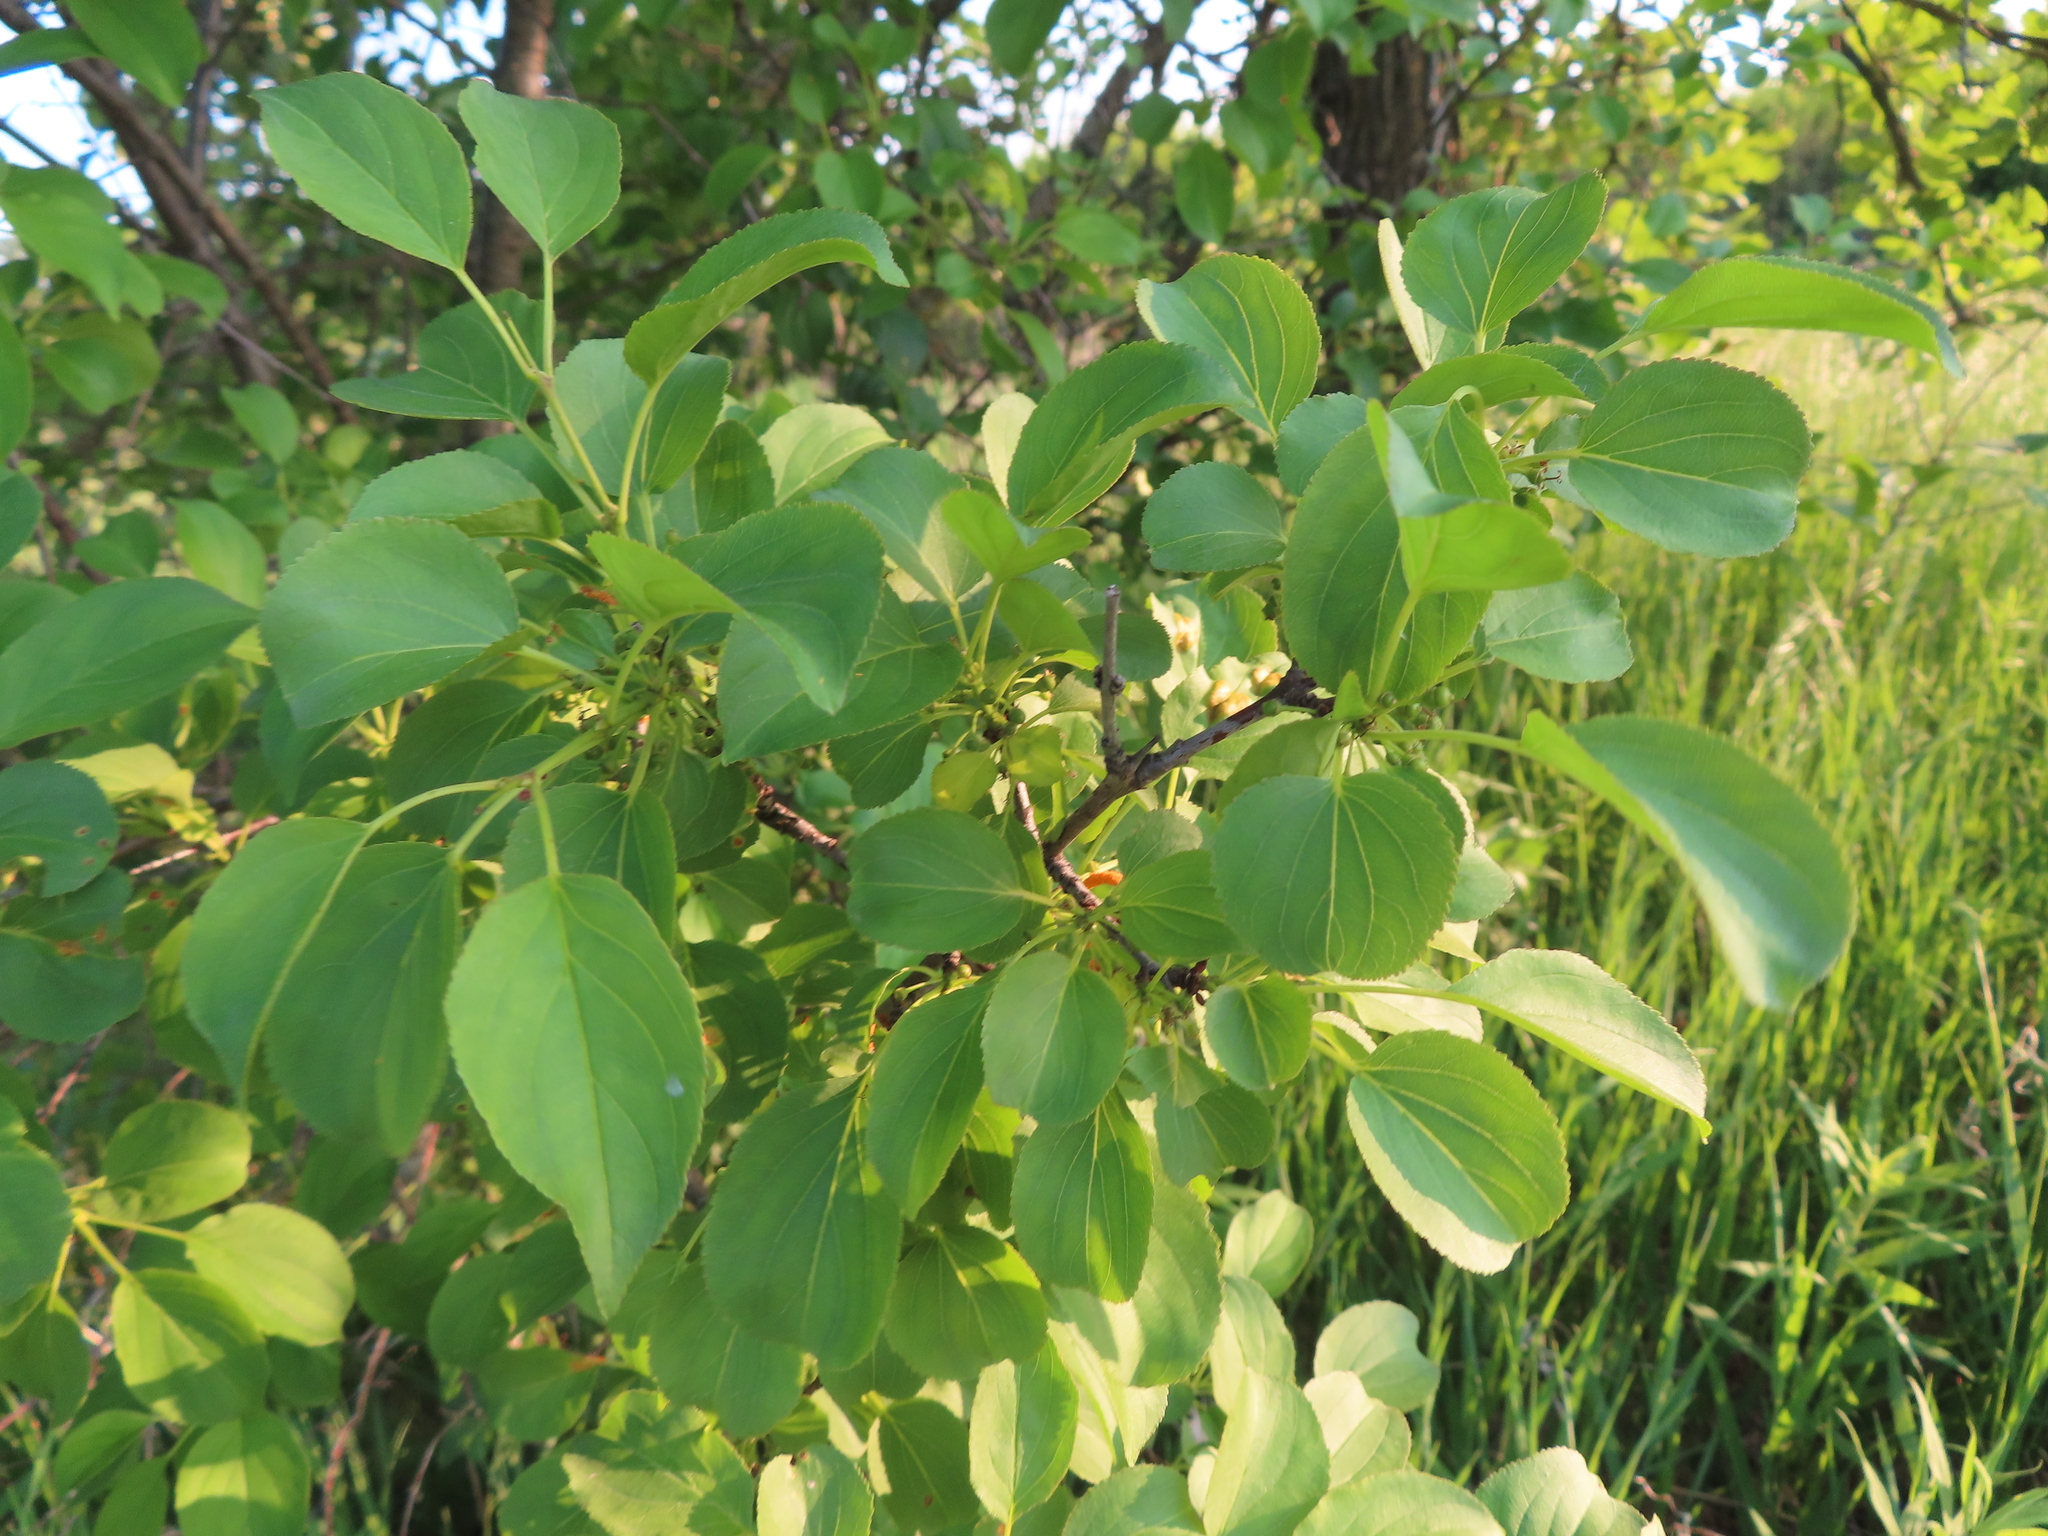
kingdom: Plantae
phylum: Tracheophyta
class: Magnoliopsida
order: Rosales
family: Rhamnaceae
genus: Rhamnus
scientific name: Rhamnus cathartica
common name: Common buckthorn
